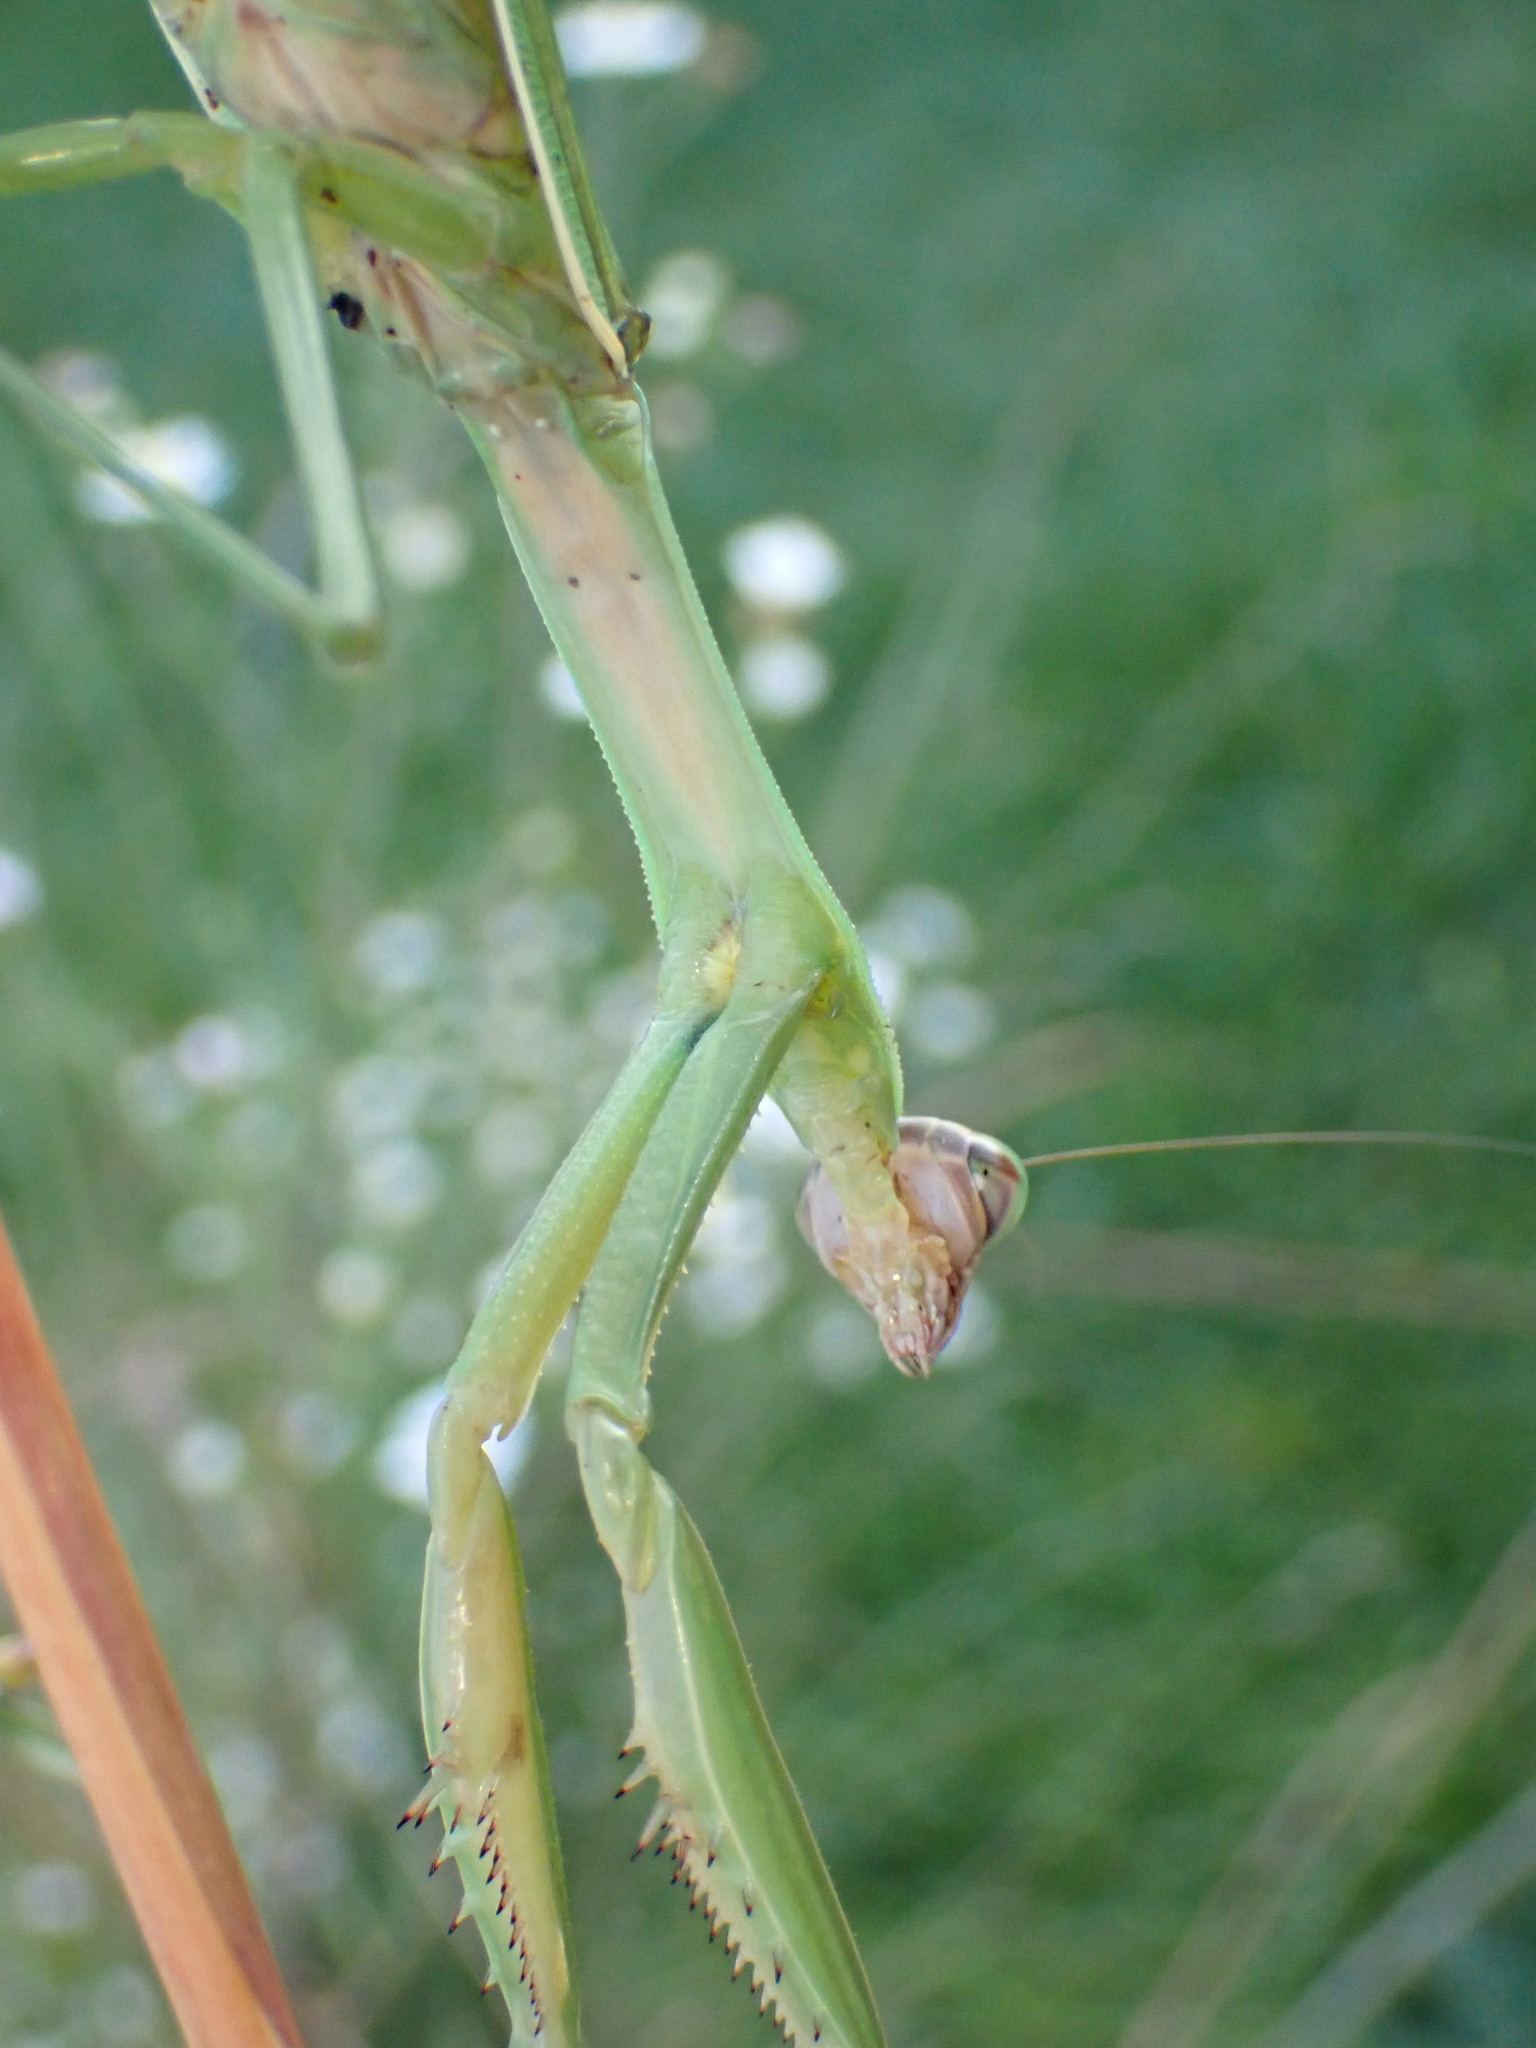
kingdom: Animalia
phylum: Arthropoda
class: Insecta
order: Mantodea
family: Mantidae
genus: Tenodera
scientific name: Tenodera sinensis
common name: Chinese mantis
